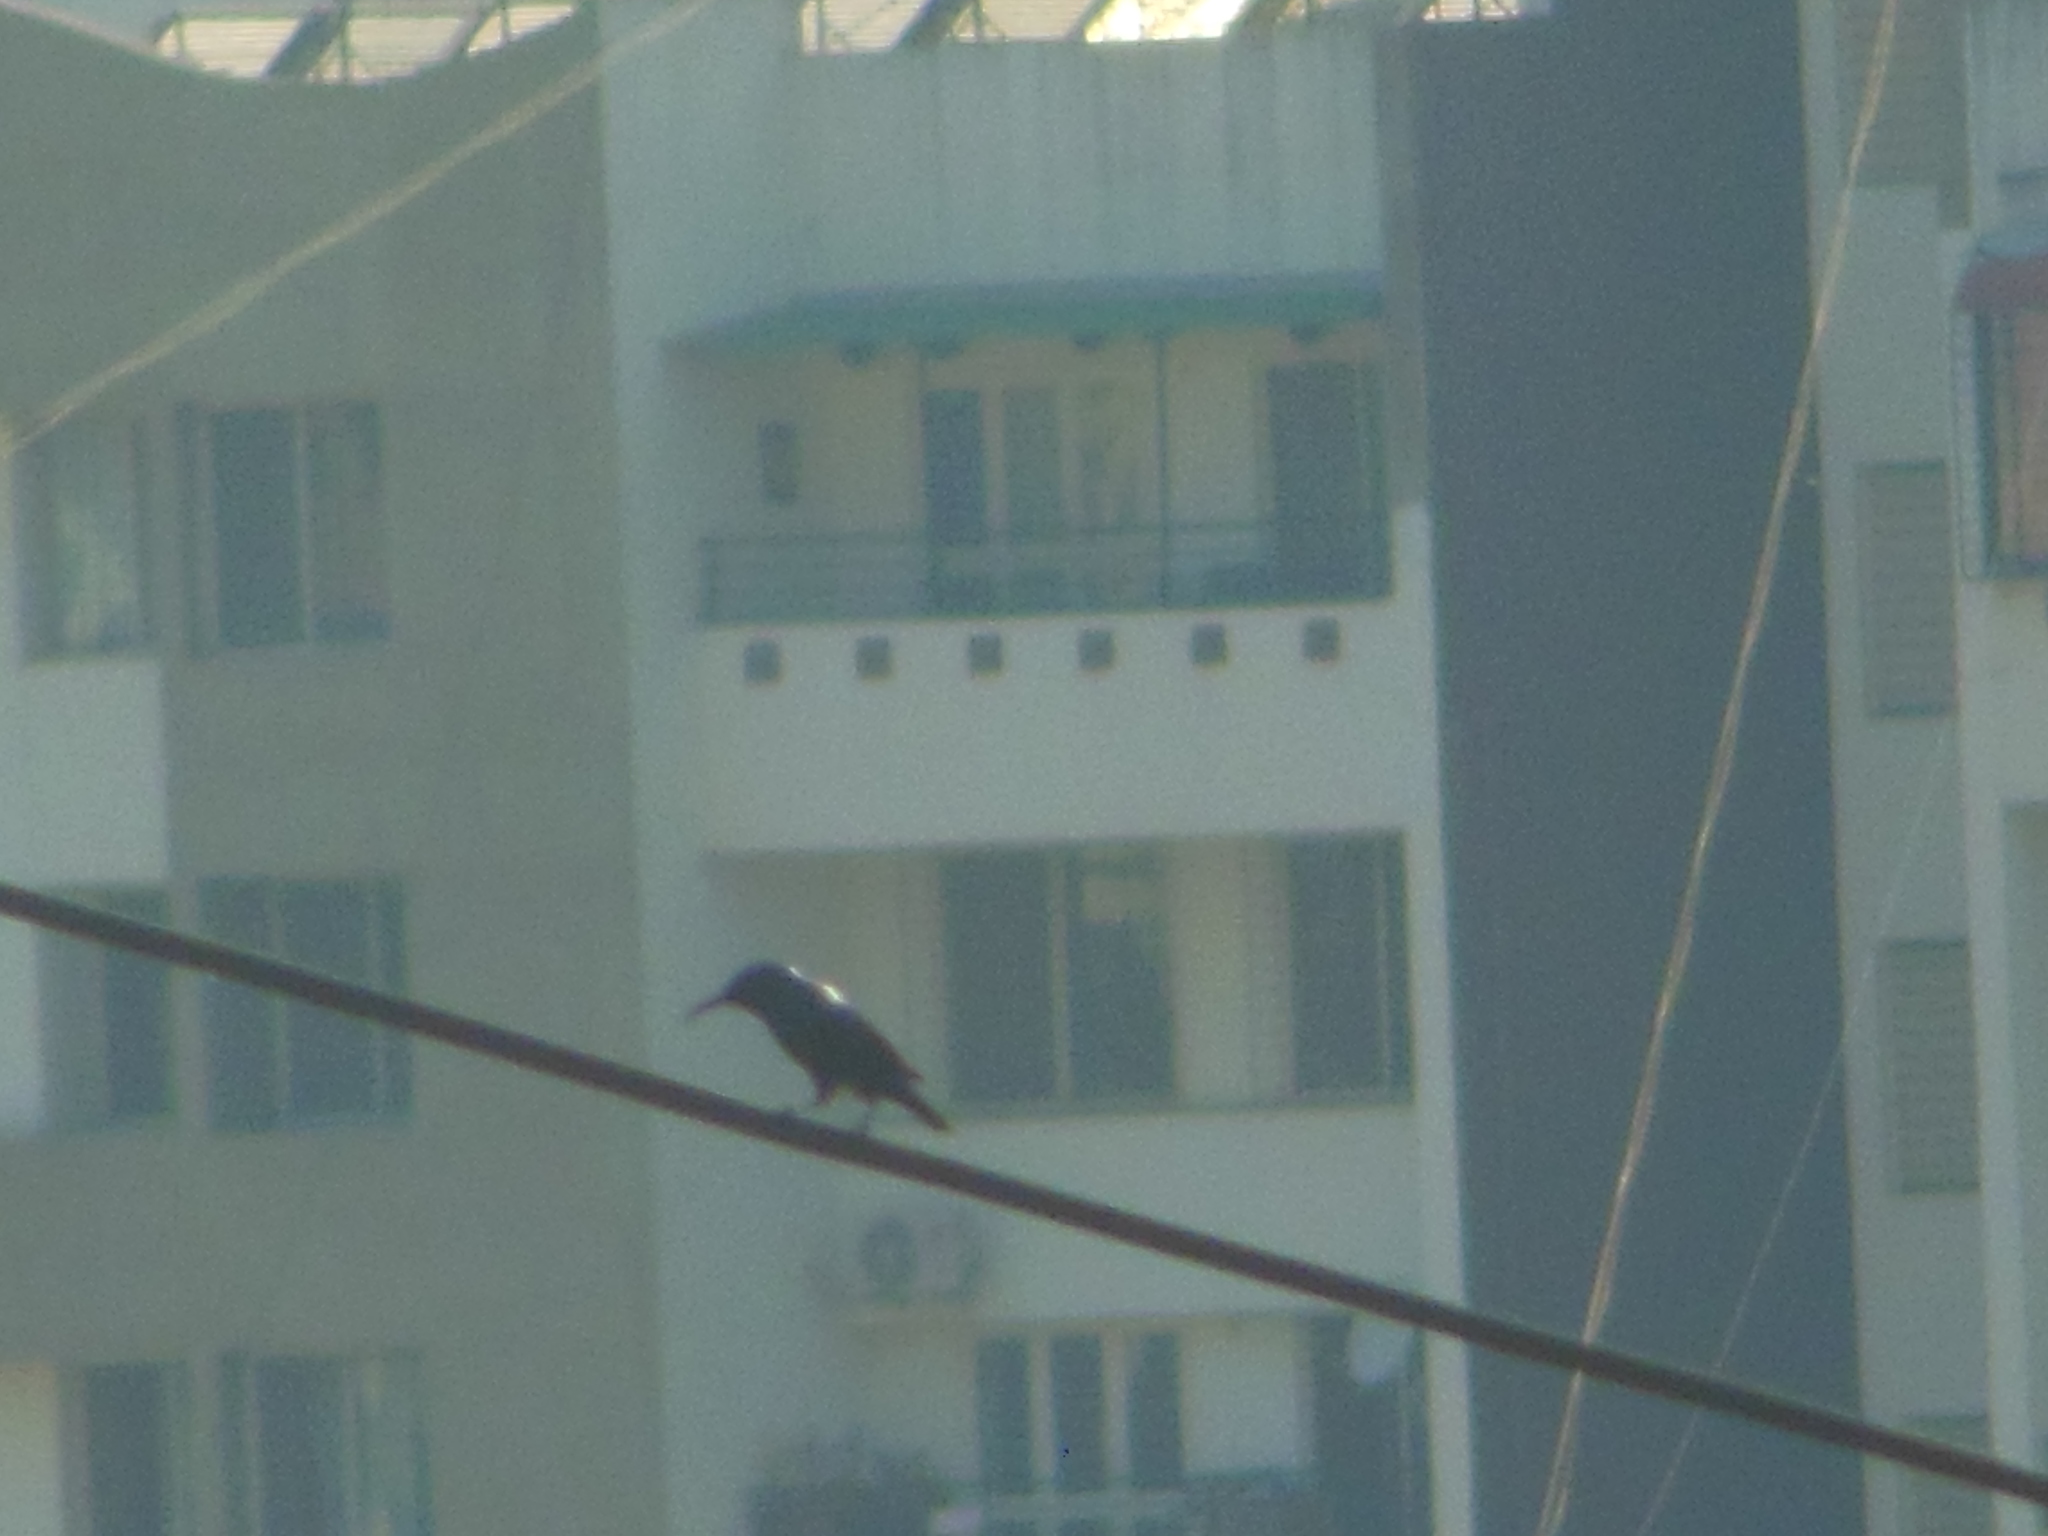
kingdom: Animalia
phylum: Chordata
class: Aves
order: Passeriformes
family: Nectariniidae
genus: Cinnyris
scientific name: Cinnyris asiaticus
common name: Purple sunbird
